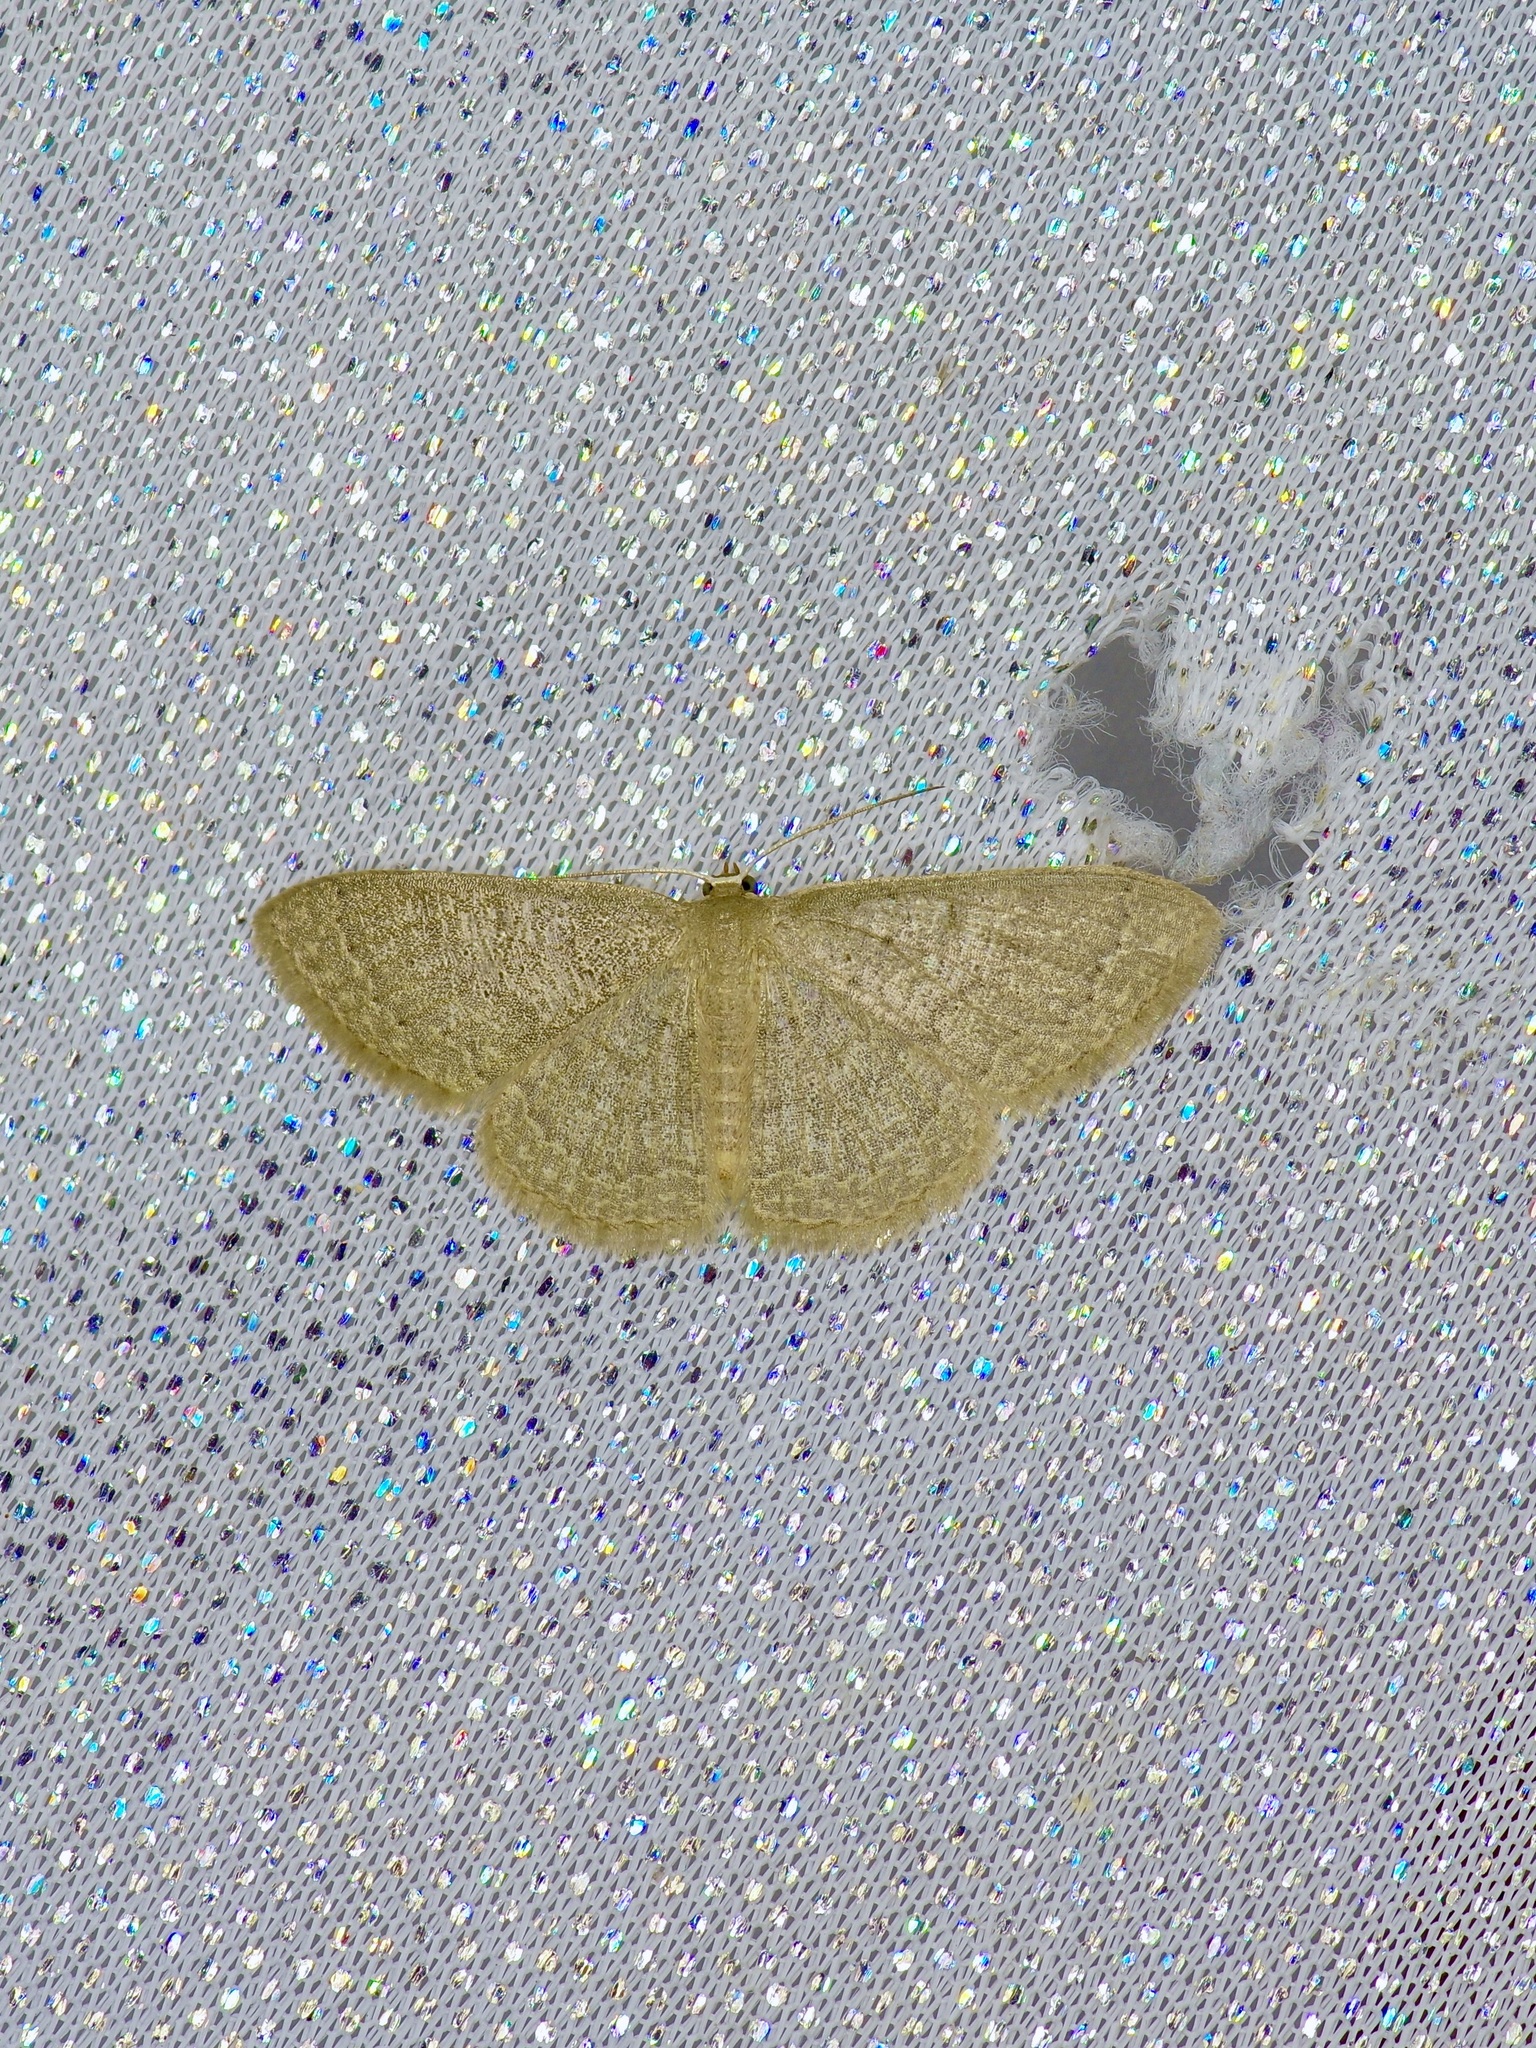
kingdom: Animalia
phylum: Arthropoda
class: Insecta
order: Lepidoptera
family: Geometridae
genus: Pleuroprucha
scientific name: Pleuroprucha insulsaria
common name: Common tan wave
